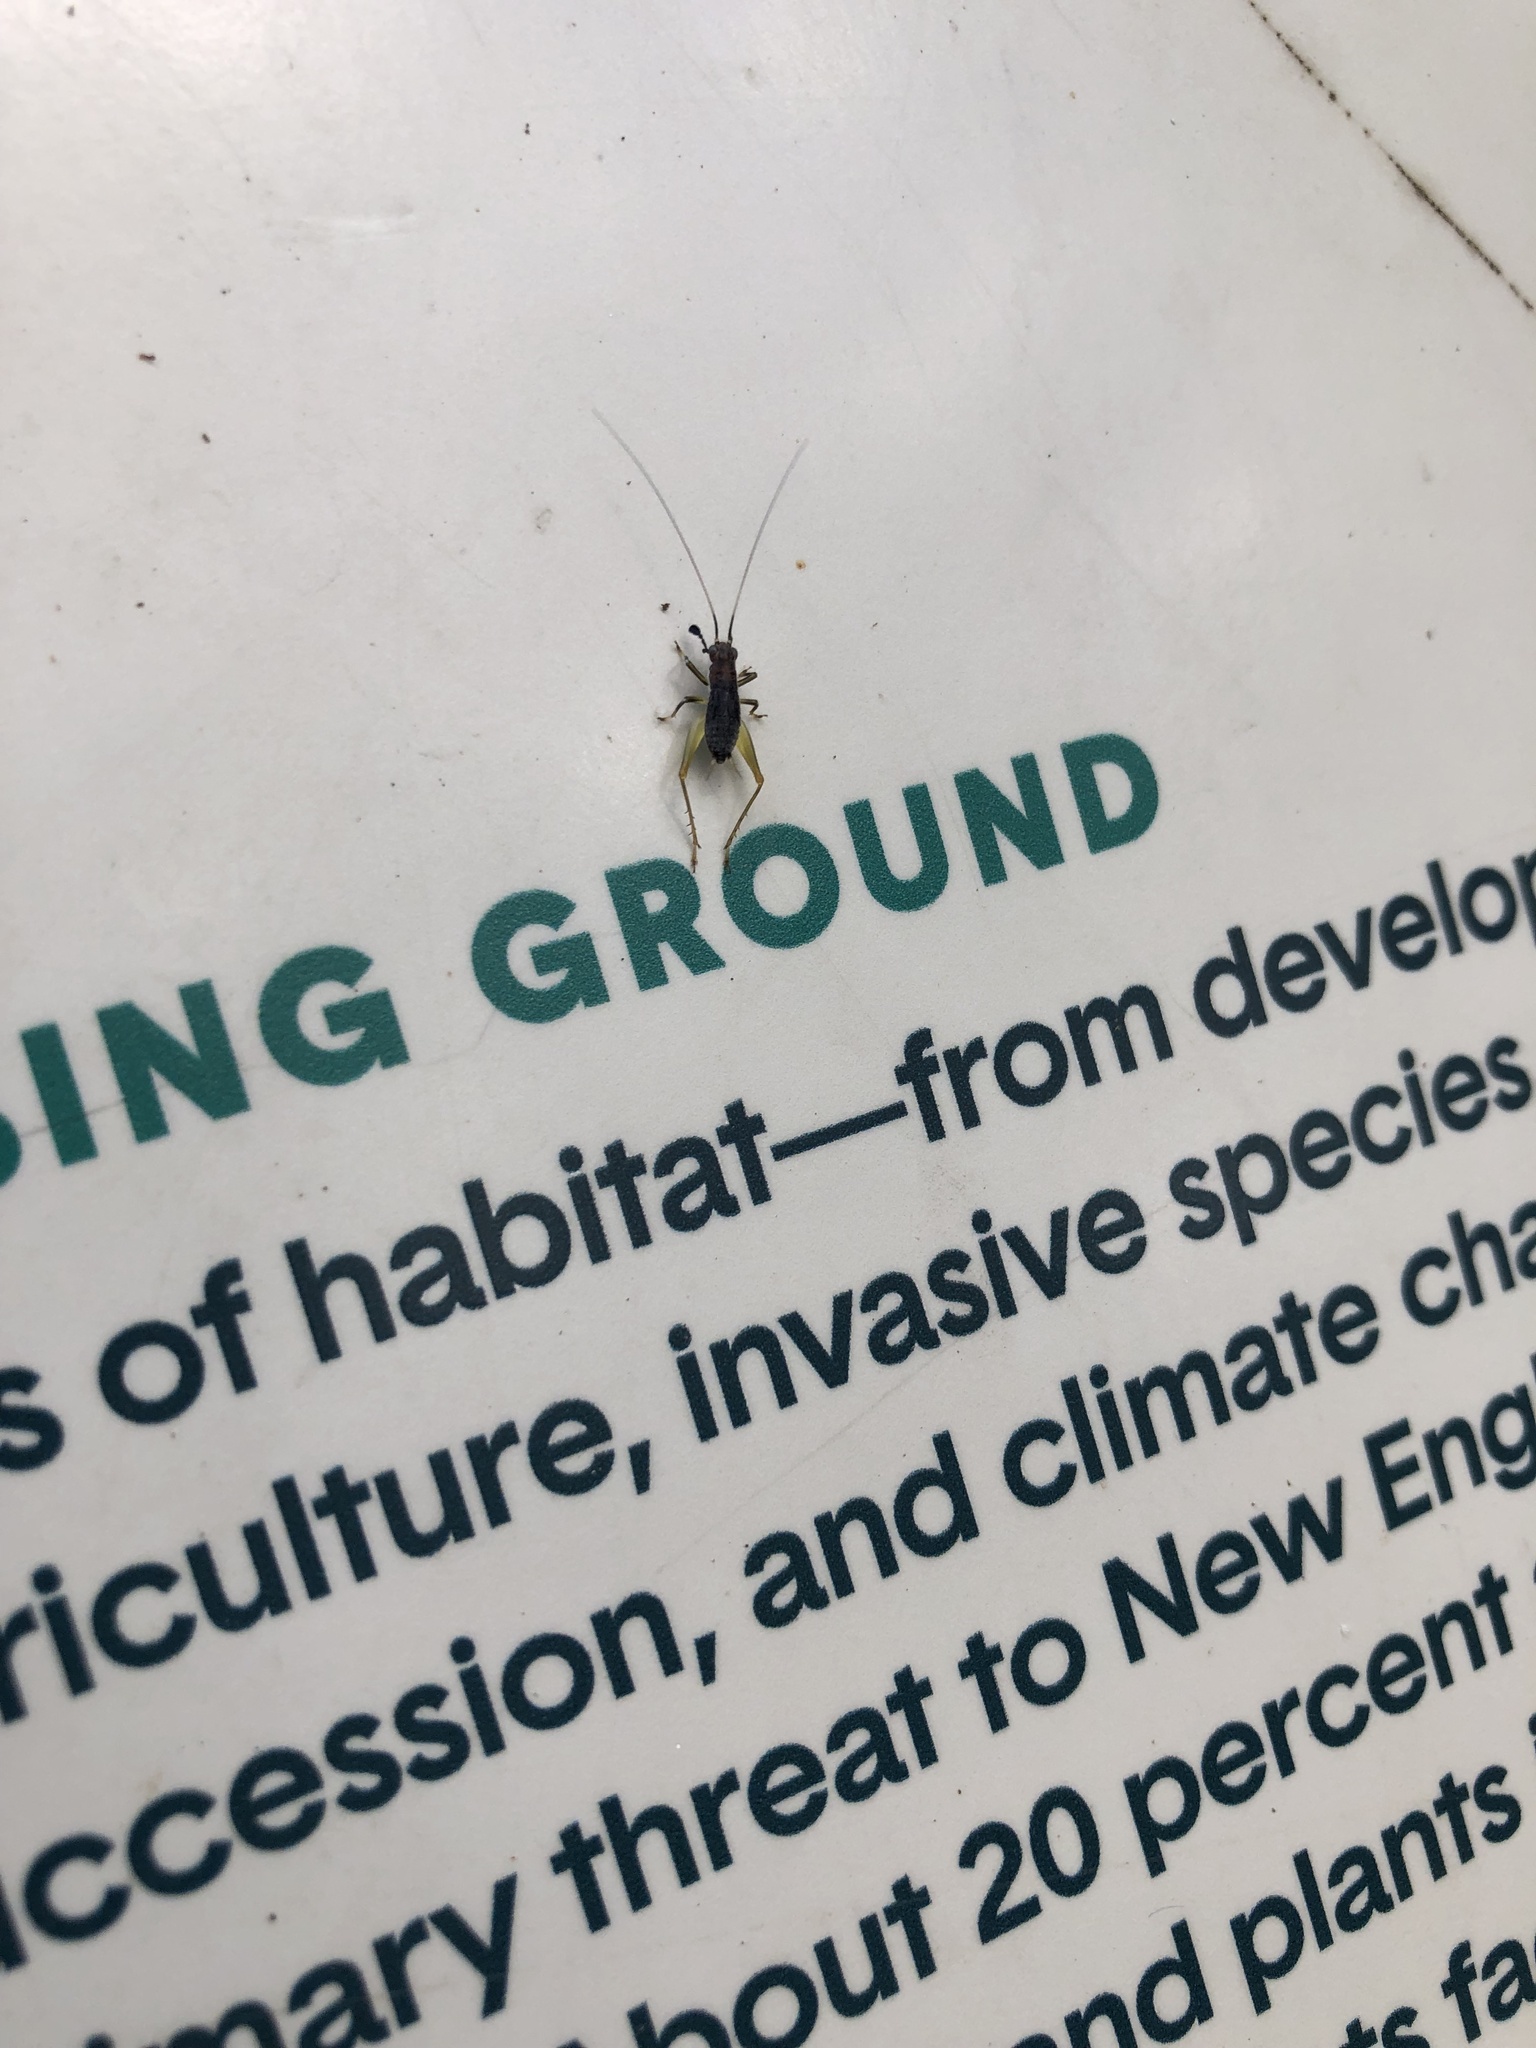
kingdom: Animalia
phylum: Arthropoda
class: Insecta
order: Orthoptera
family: Trigonidiidae
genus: Phyllopalpus
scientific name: Phyllopalpus pulchellus
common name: Handsome trig
